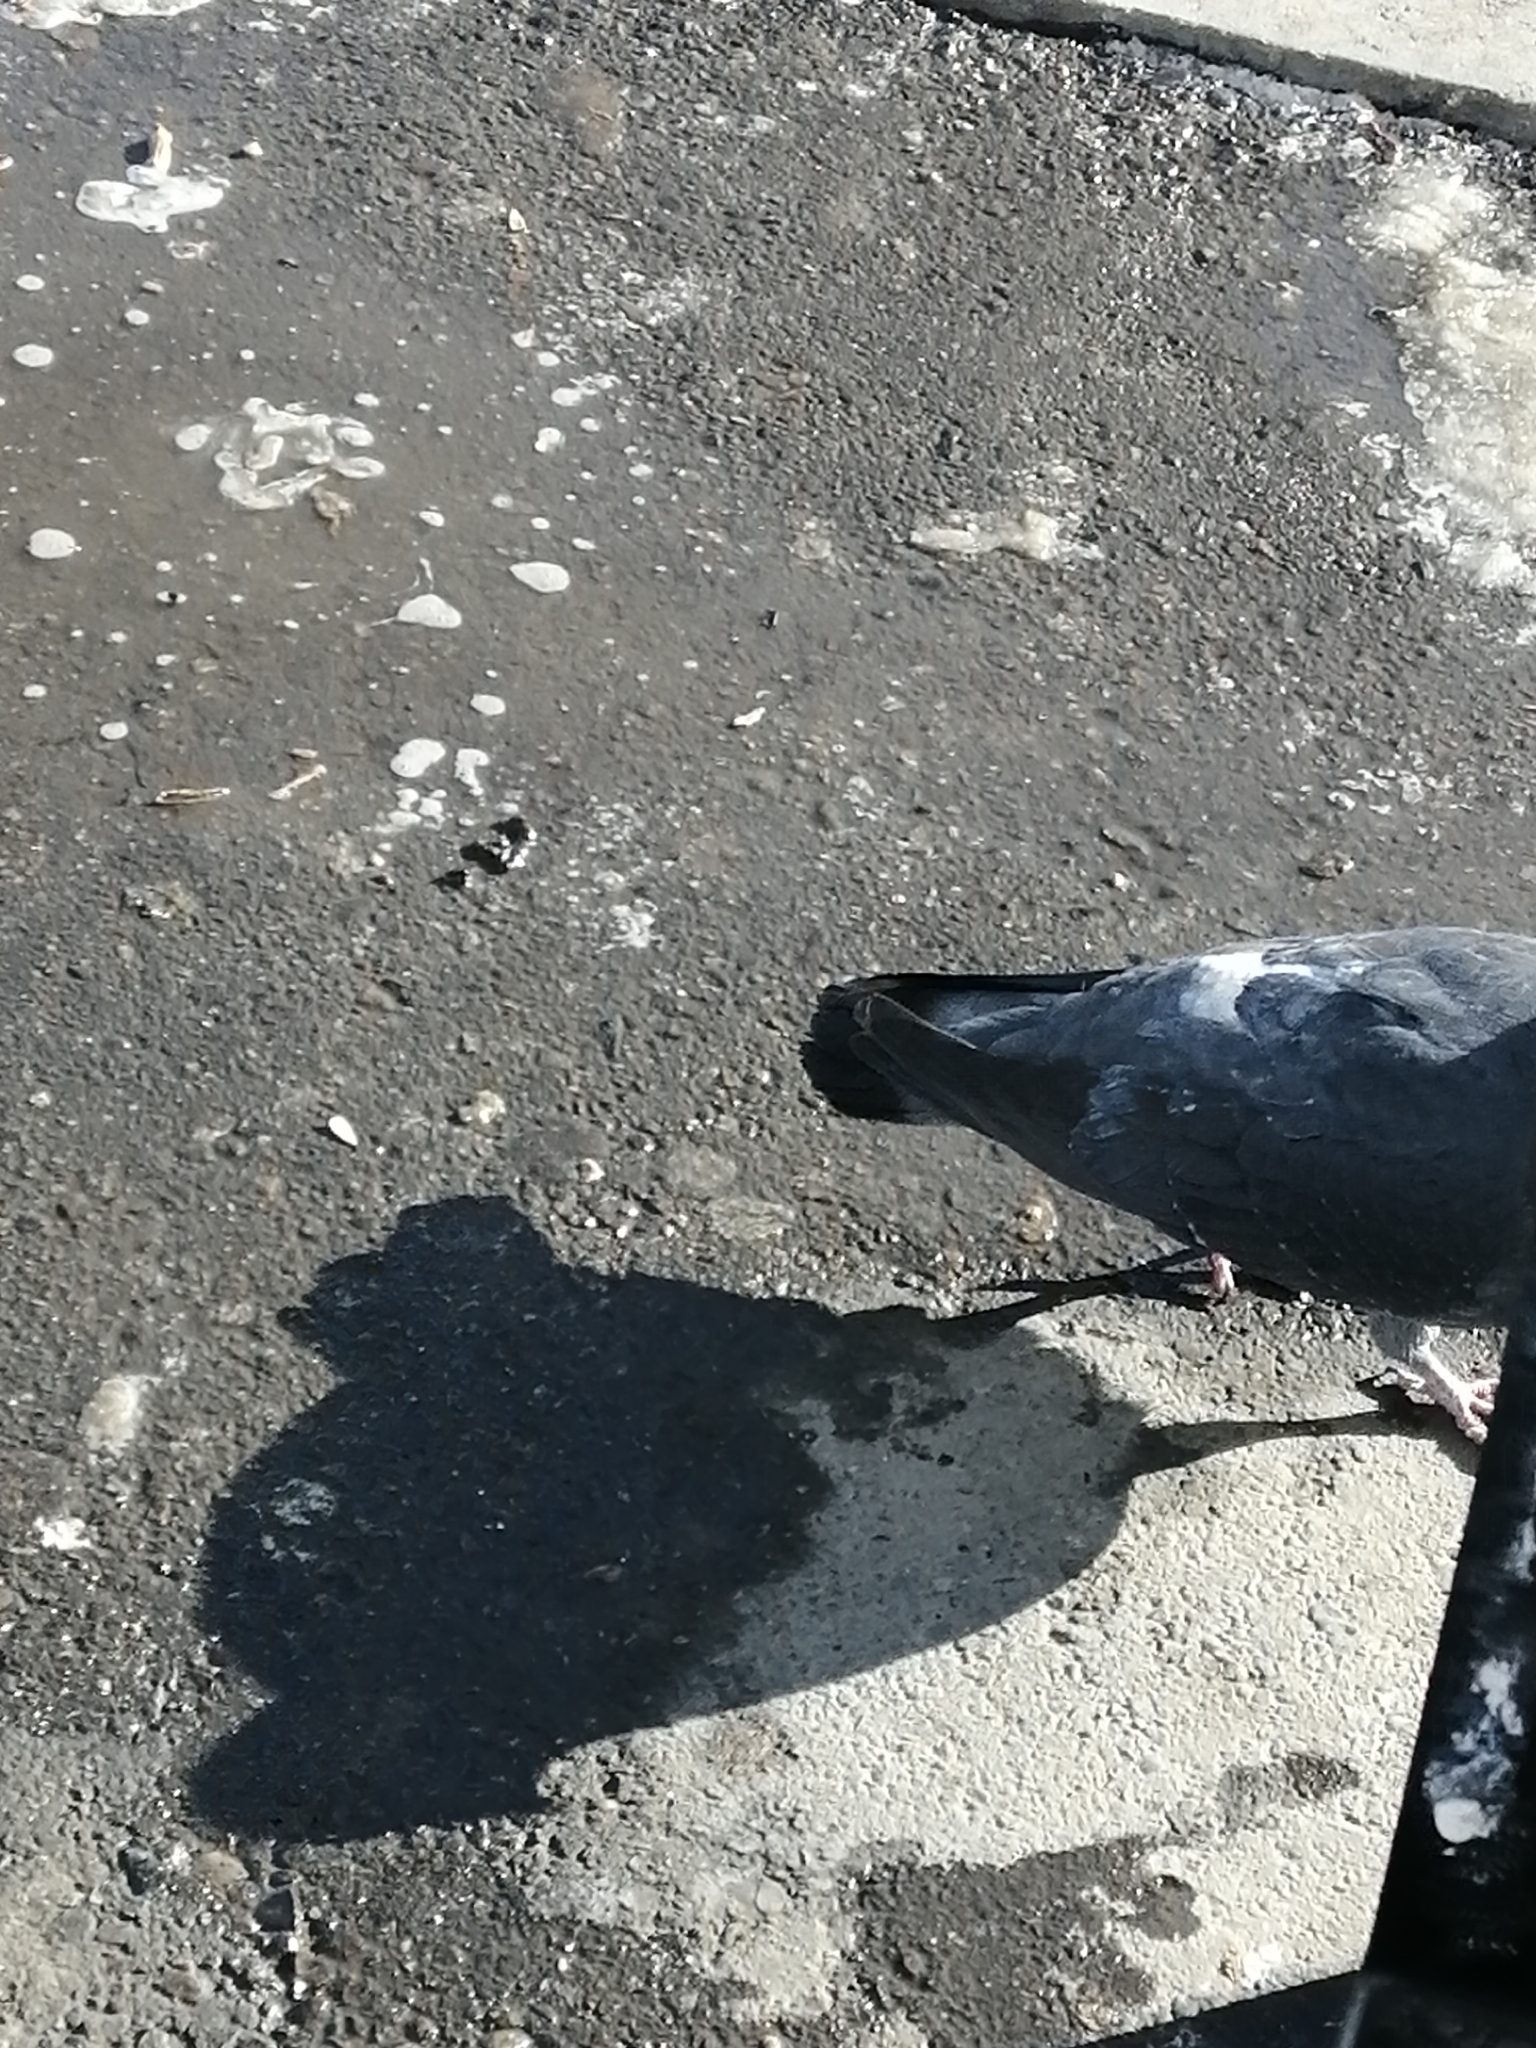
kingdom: Animalia
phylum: Chordata
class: Aves
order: Columbiformes
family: Columbidae
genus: Columba
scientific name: Columba livia
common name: Rock pigeon
